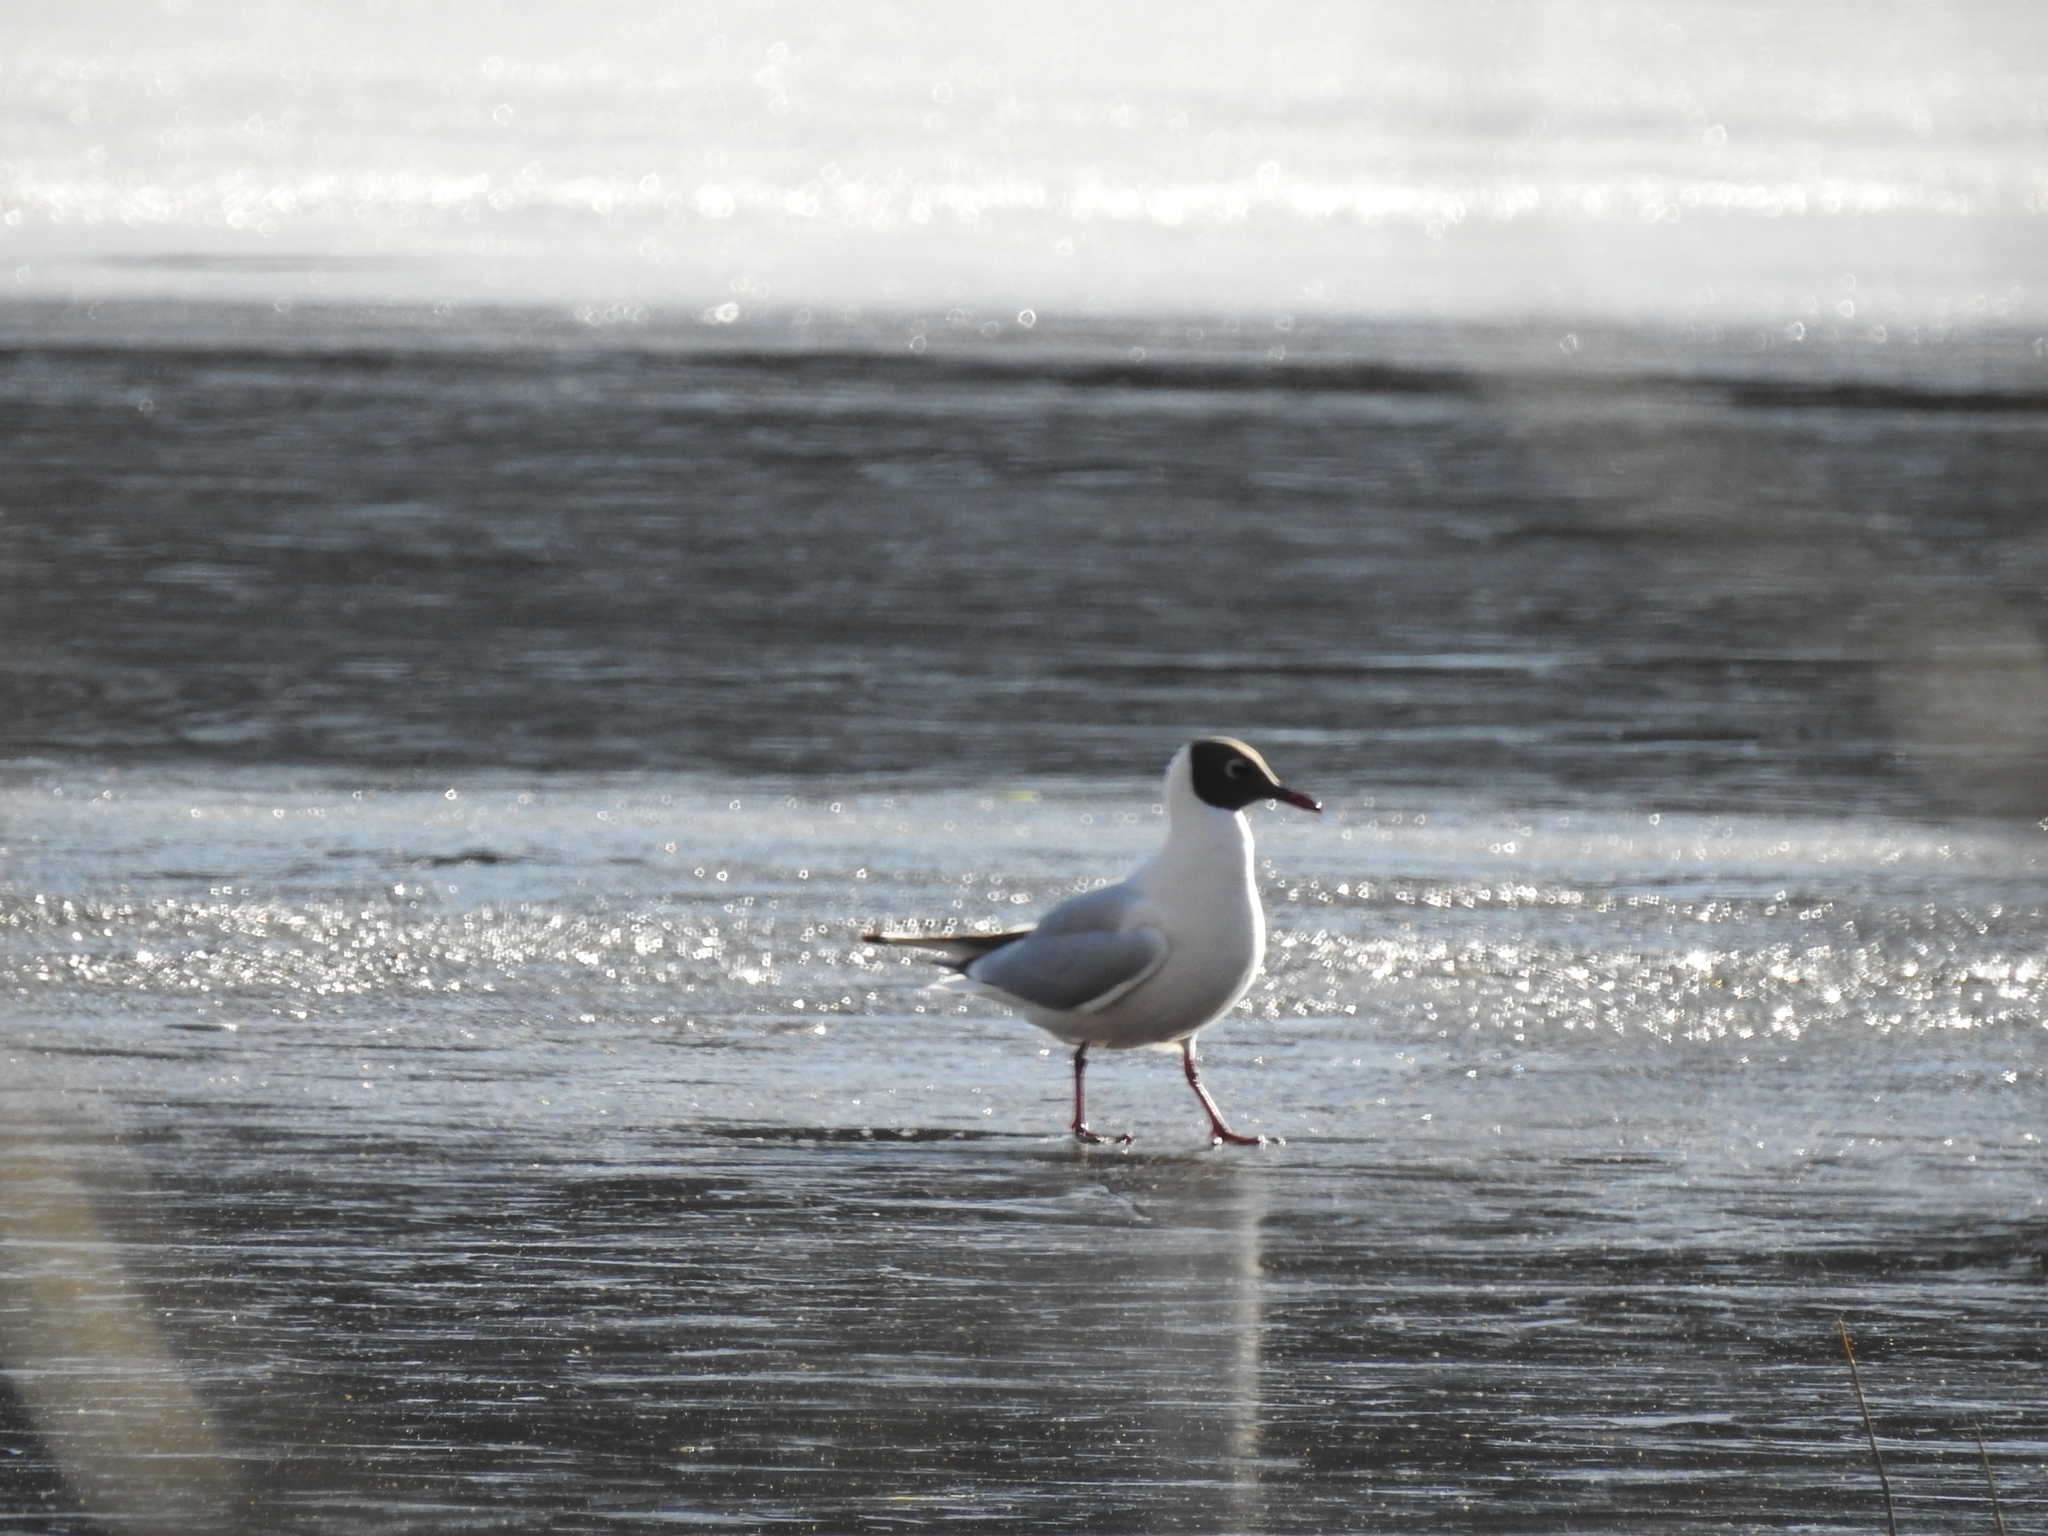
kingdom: Animalia
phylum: Chordata
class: Aves
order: Charadriiformes
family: Laridae
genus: Chroicocephalus
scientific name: Chroicocephalus ridibundus
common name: Black-headed gull
